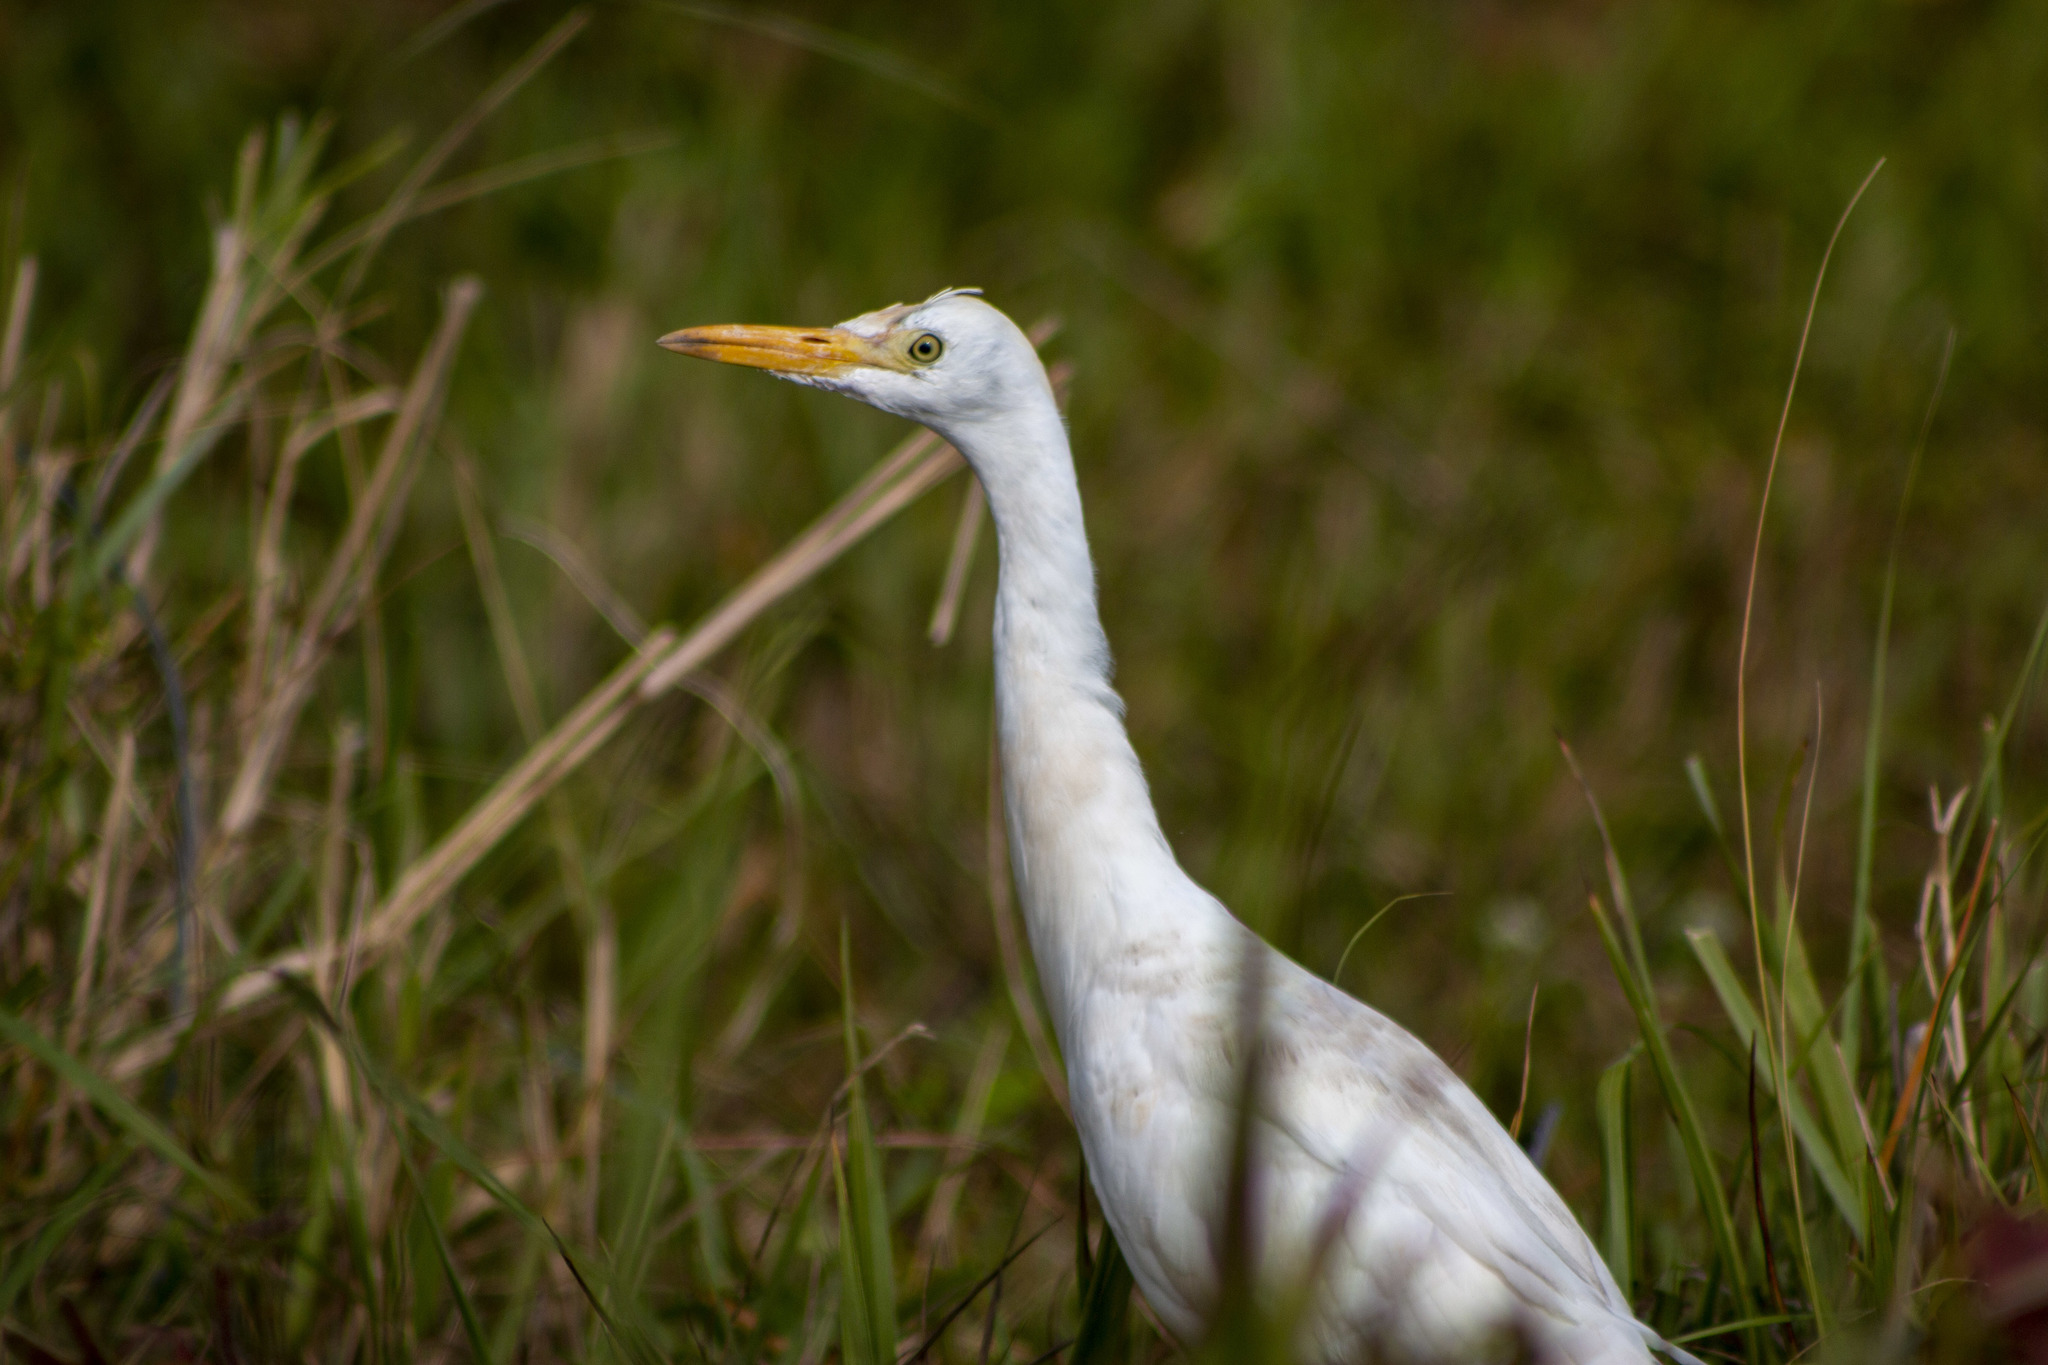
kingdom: Animalia
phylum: Chordata
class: Aves
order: Pelecaniformes
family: Ardeidae
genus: Bubulcus
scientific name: Bubulcus ibis
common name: Cattle egret
